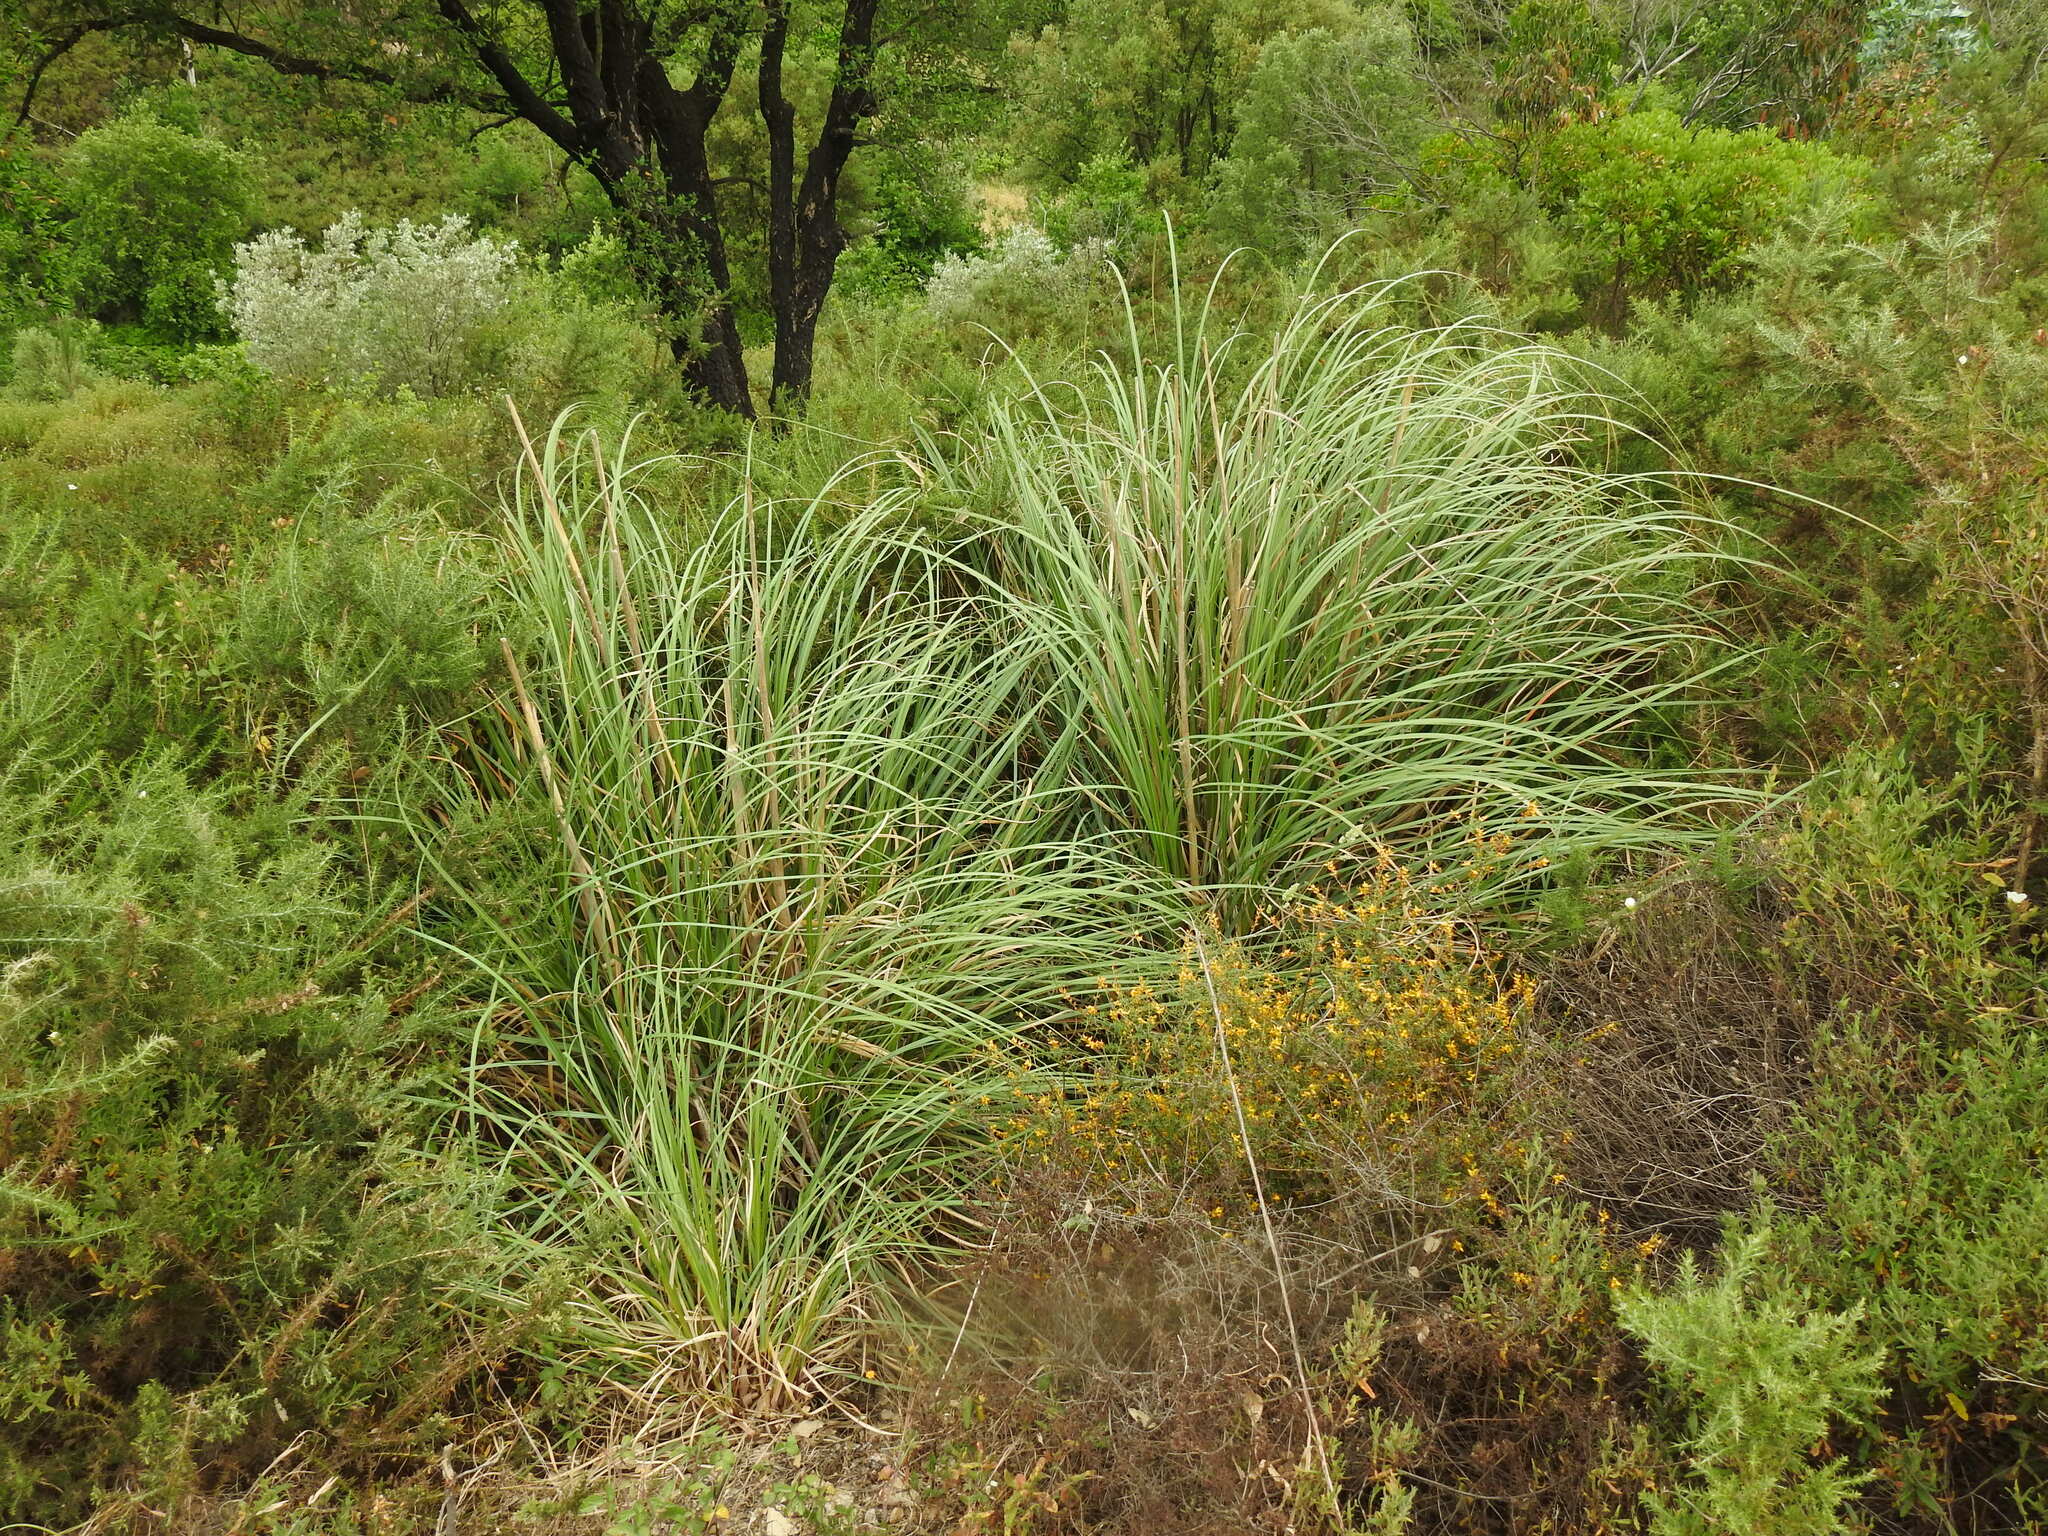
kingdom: Plantae
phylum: Tracheophyta
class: Liliopsida
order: Poales
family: Poaceae
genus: Cortaderia
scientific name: Cortaderia selloana
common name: Uruguayan pampas grass
